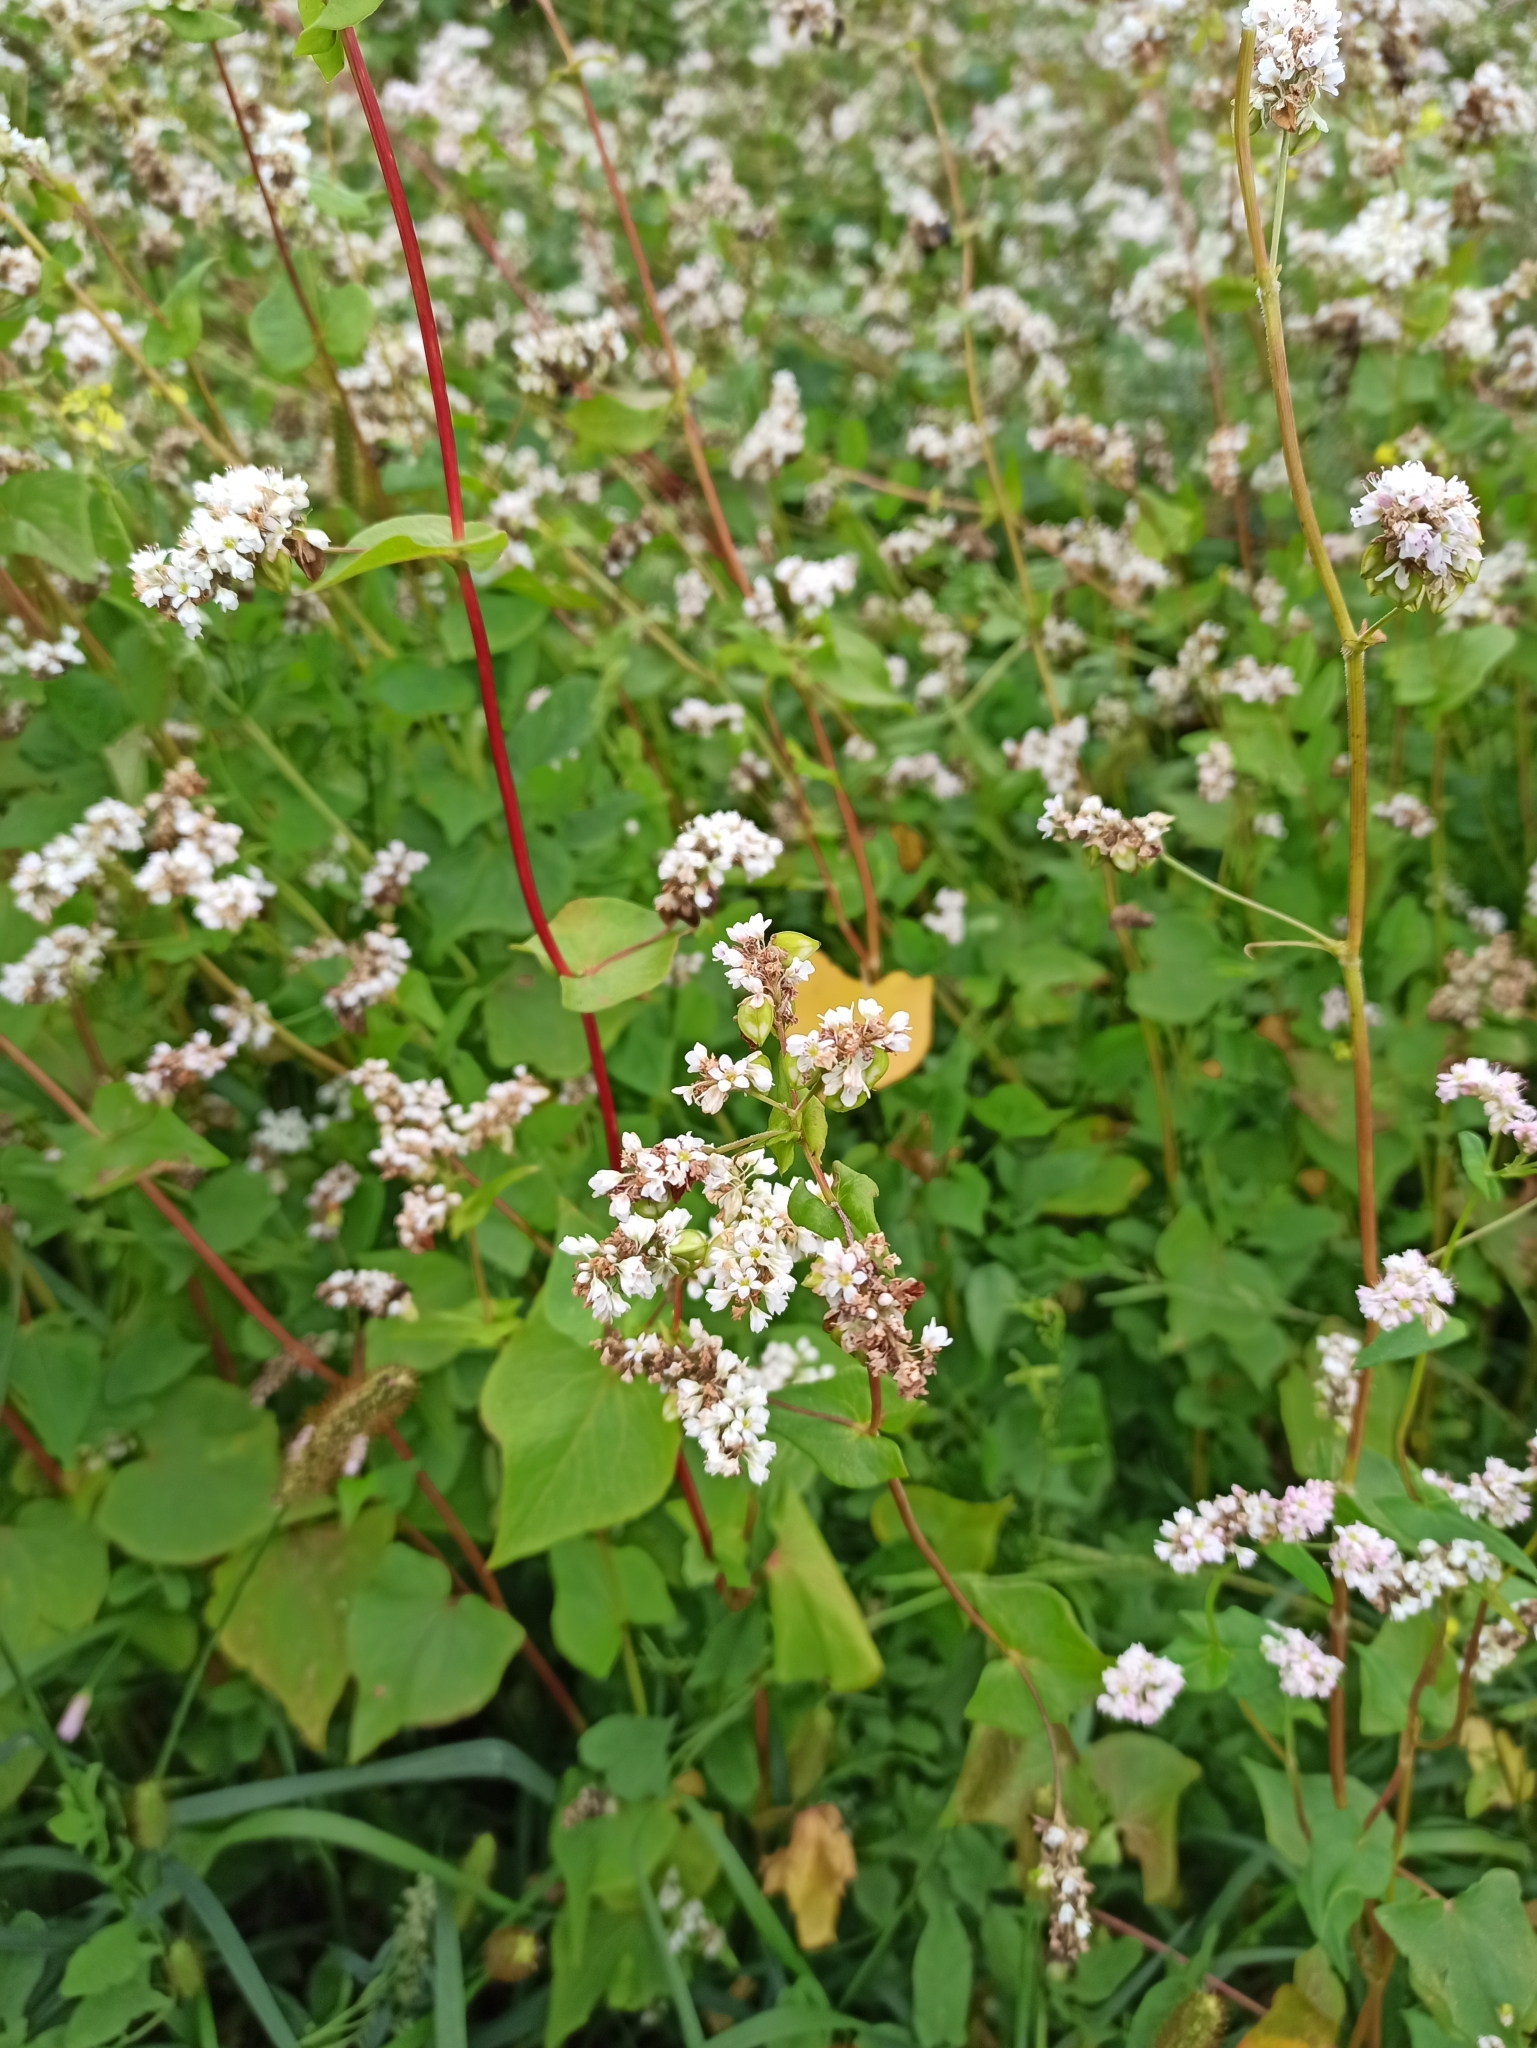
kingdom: Plantae
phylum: Tracheophyta
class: Magnoliopsida
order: Caryophyllales
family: Polygonaceae
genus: Fagopyrum
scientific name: Fagopyrum esculentum
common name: Buckwheat
